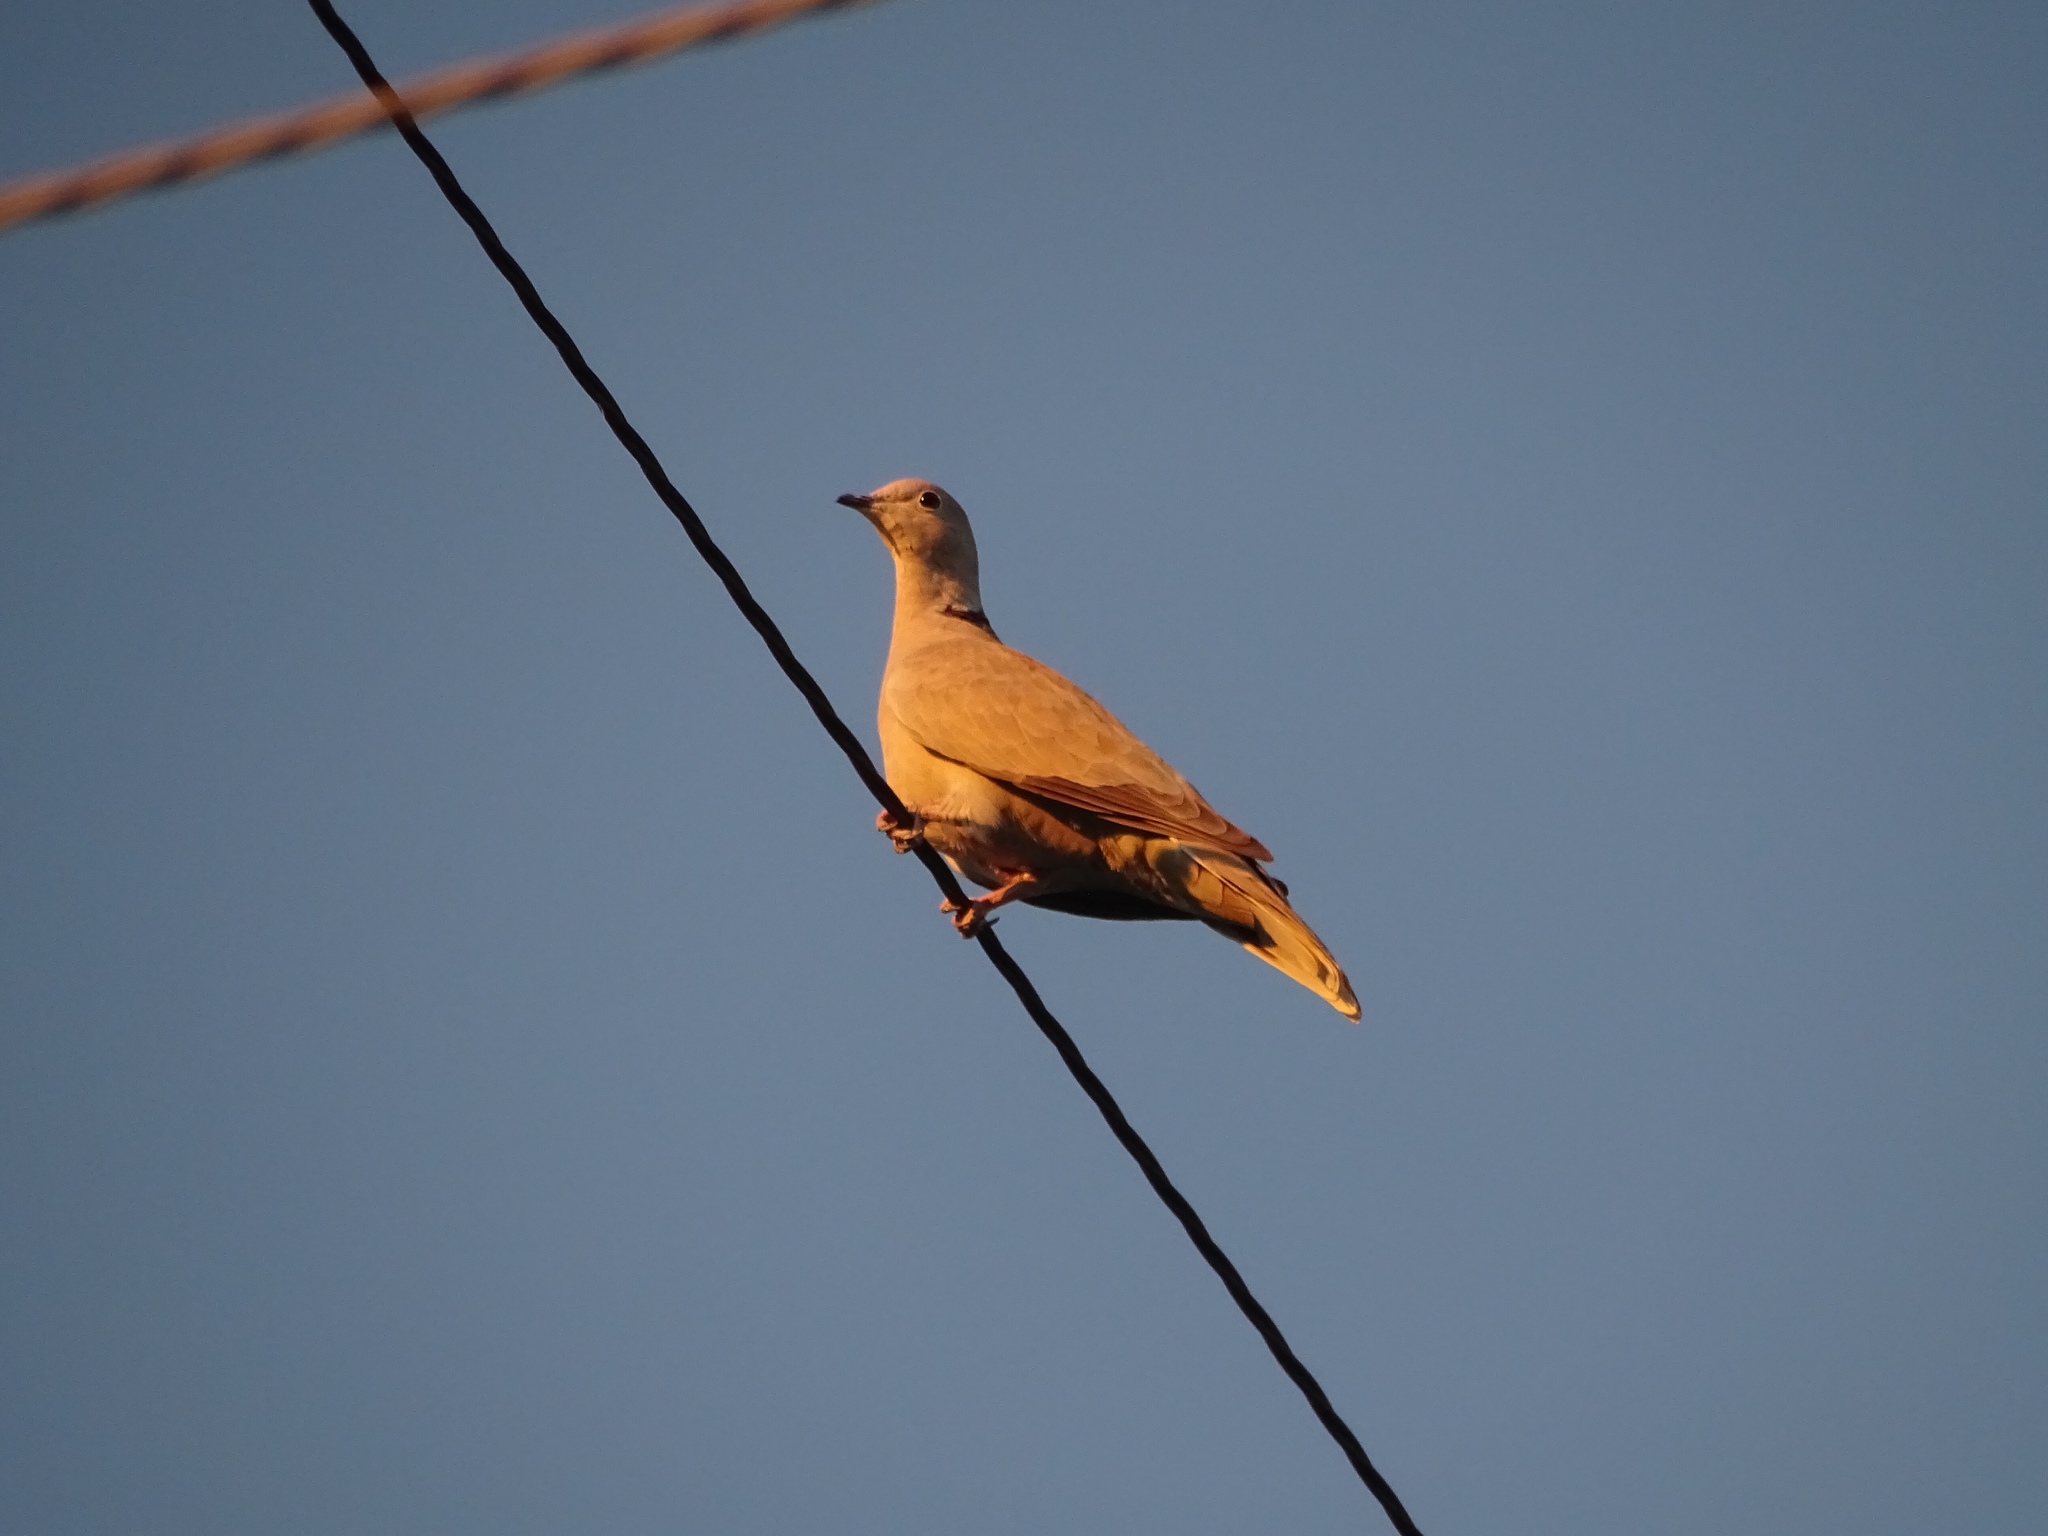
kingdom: Animalia
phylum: Chordata
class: Aves
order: Columbiformes
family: Columbidae
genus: Streptopelia
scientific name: Streptopelia decaocto
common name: Eurasian collared dove
